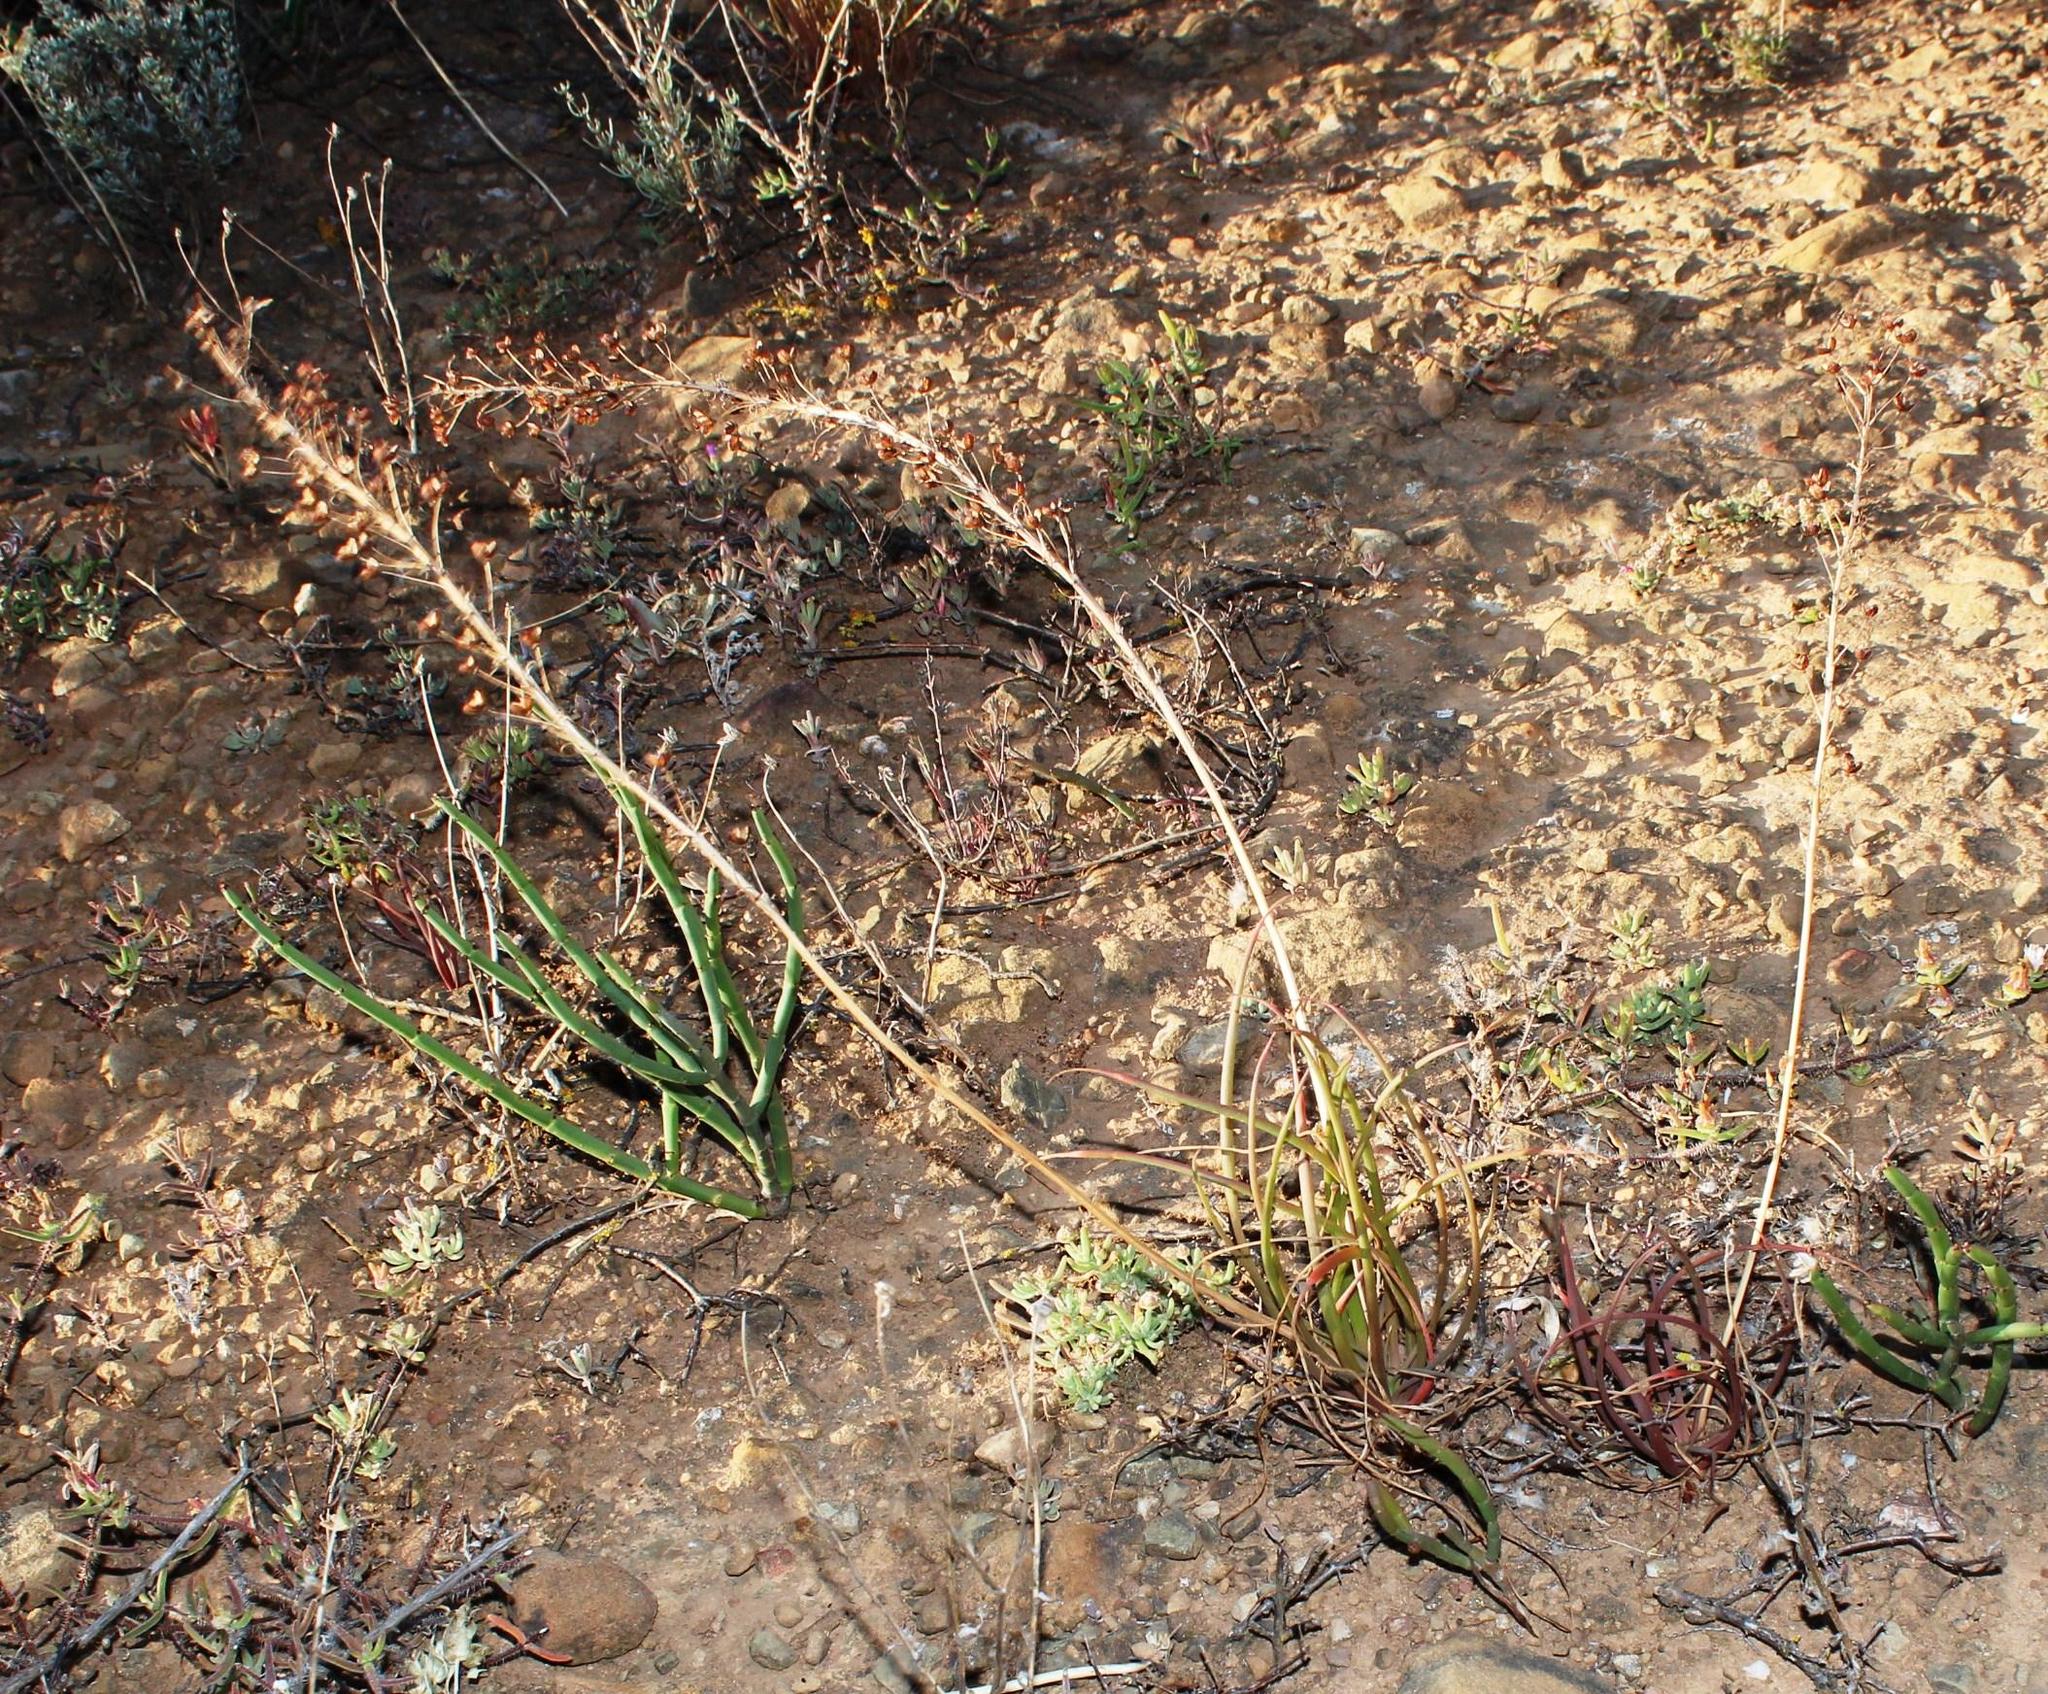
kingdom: Plantae
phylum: Tracheophyta
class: Liliopsida
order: Asparagales
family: Asphodelaceae
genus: Bulbine
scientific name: Bulbine lagopus
